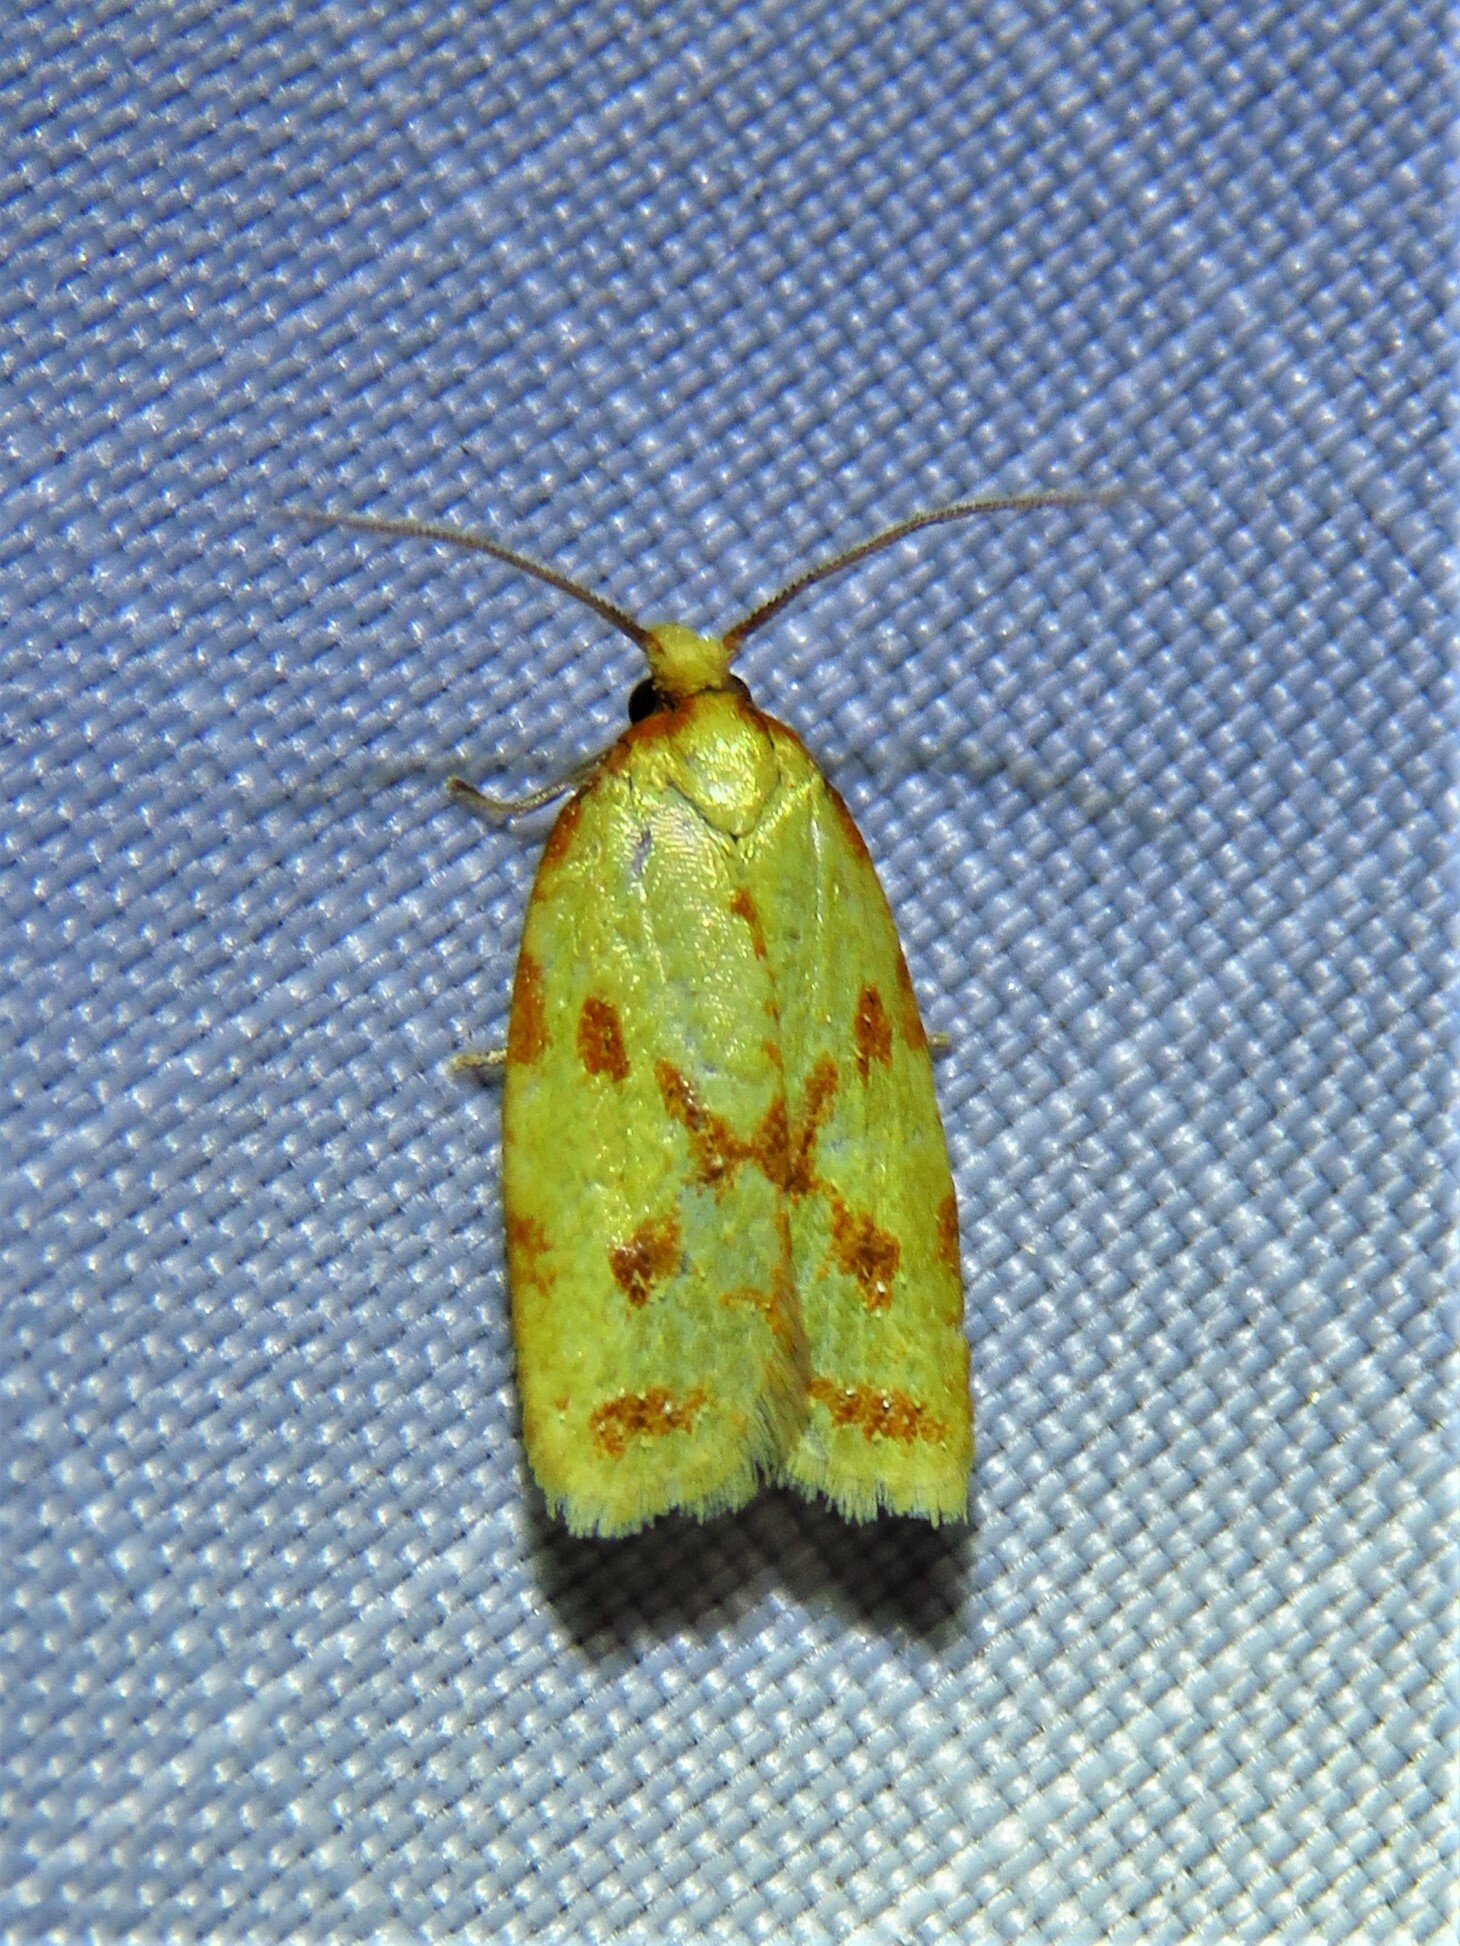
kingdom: Animalia
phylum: Arthropoda
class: Insecta
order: Lepidoptera
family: Tortricidae
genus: Sparganothis
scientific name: Sparganothis sulfureana
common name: Sparganothis fruitworm moth
